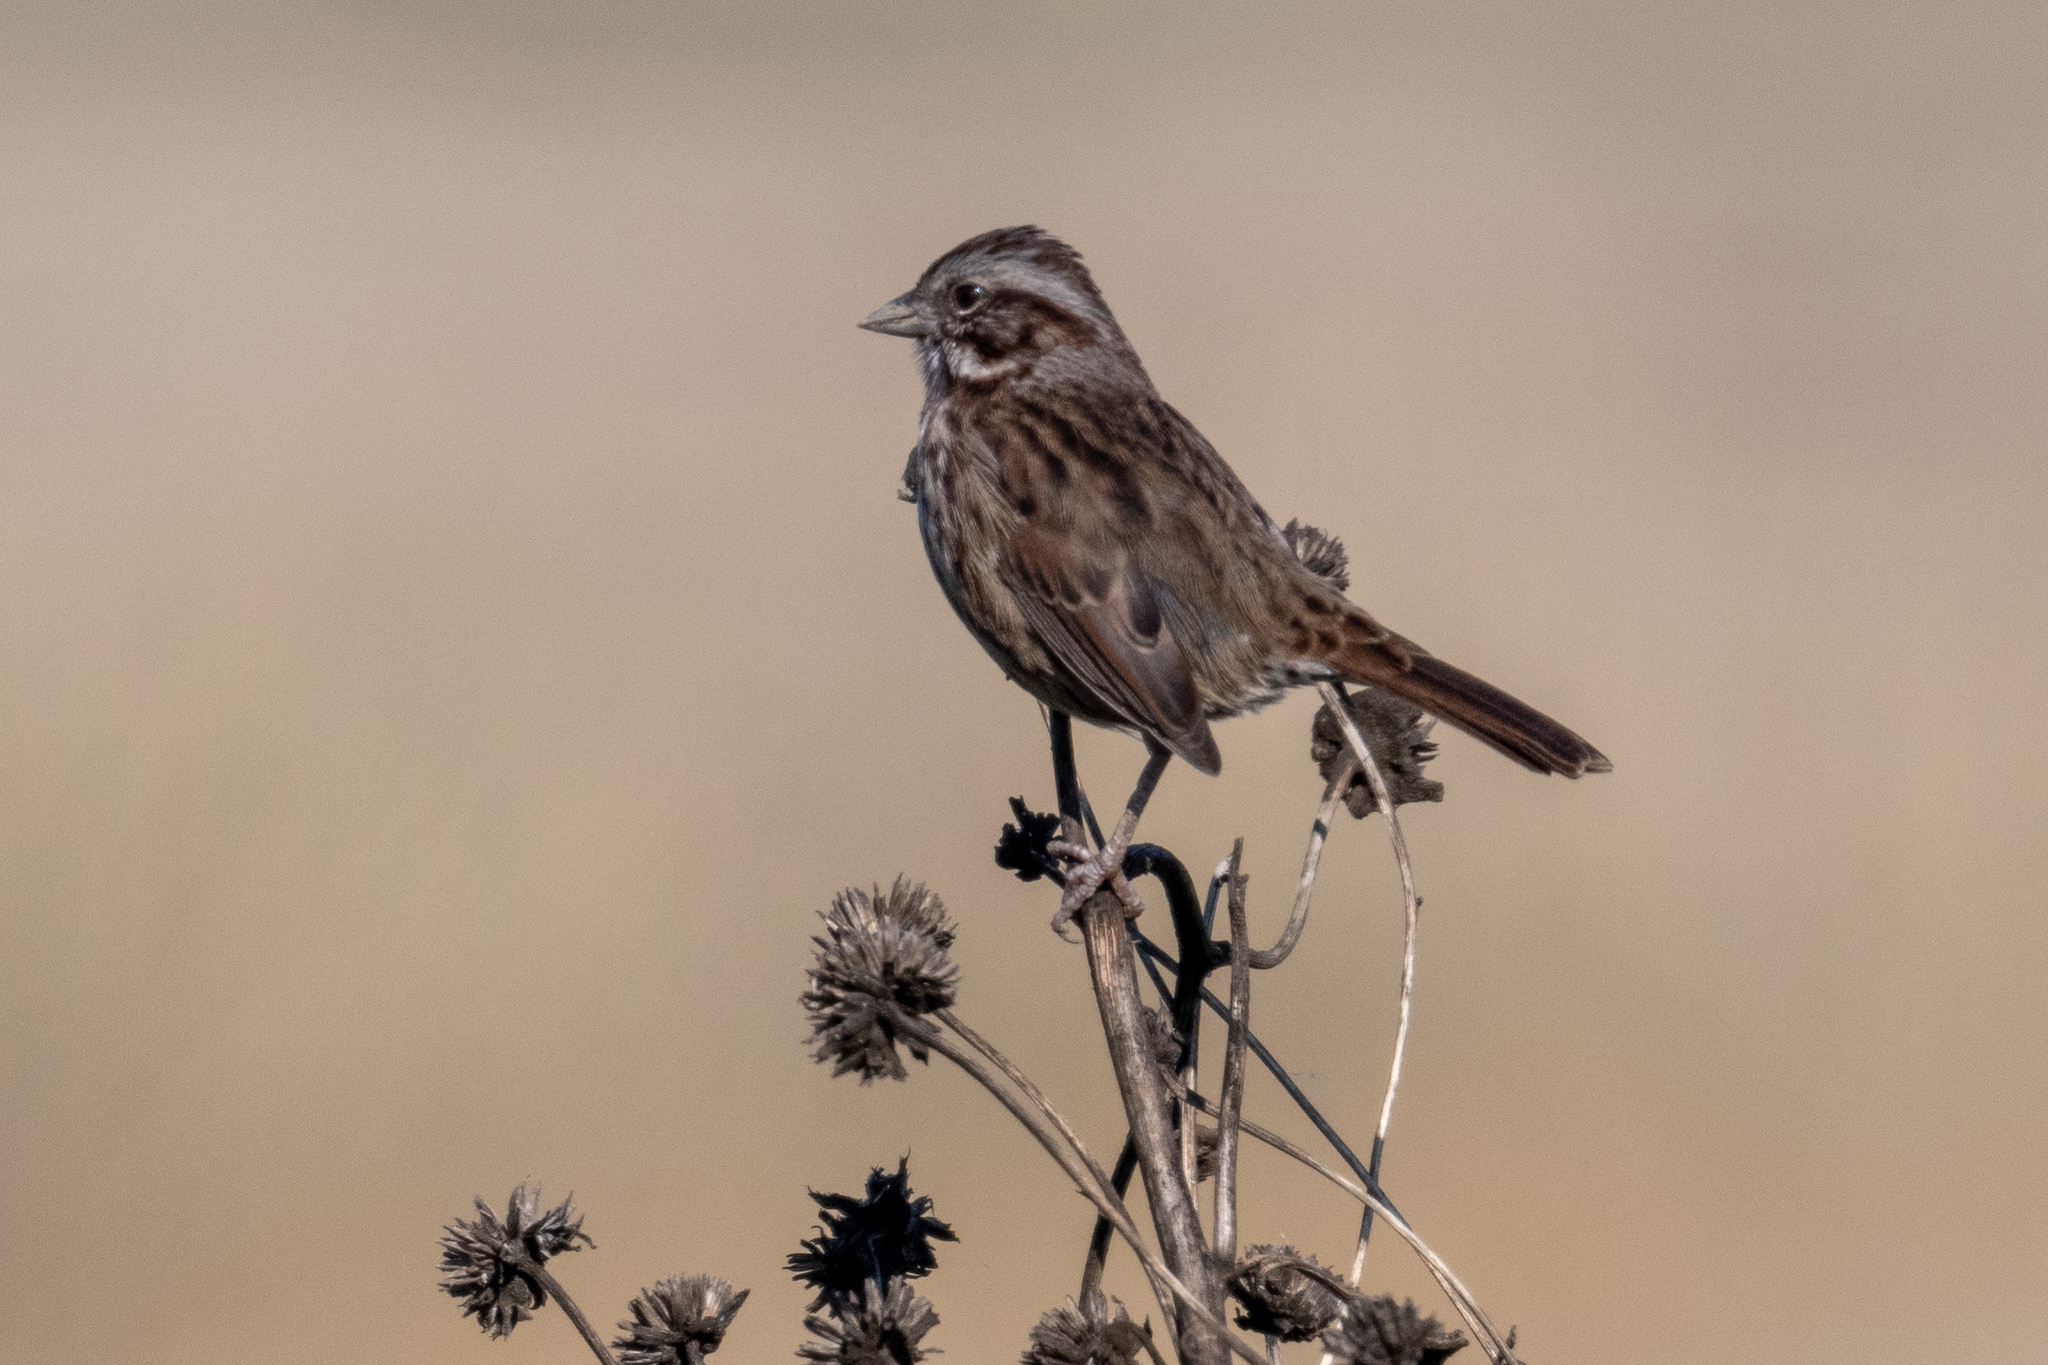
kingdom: Animalia
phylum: Chordata
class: Aves
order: Passeriformes
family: Passerellidae
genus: Melospiza
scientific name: Melospiza melodia
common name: Song sparrow
